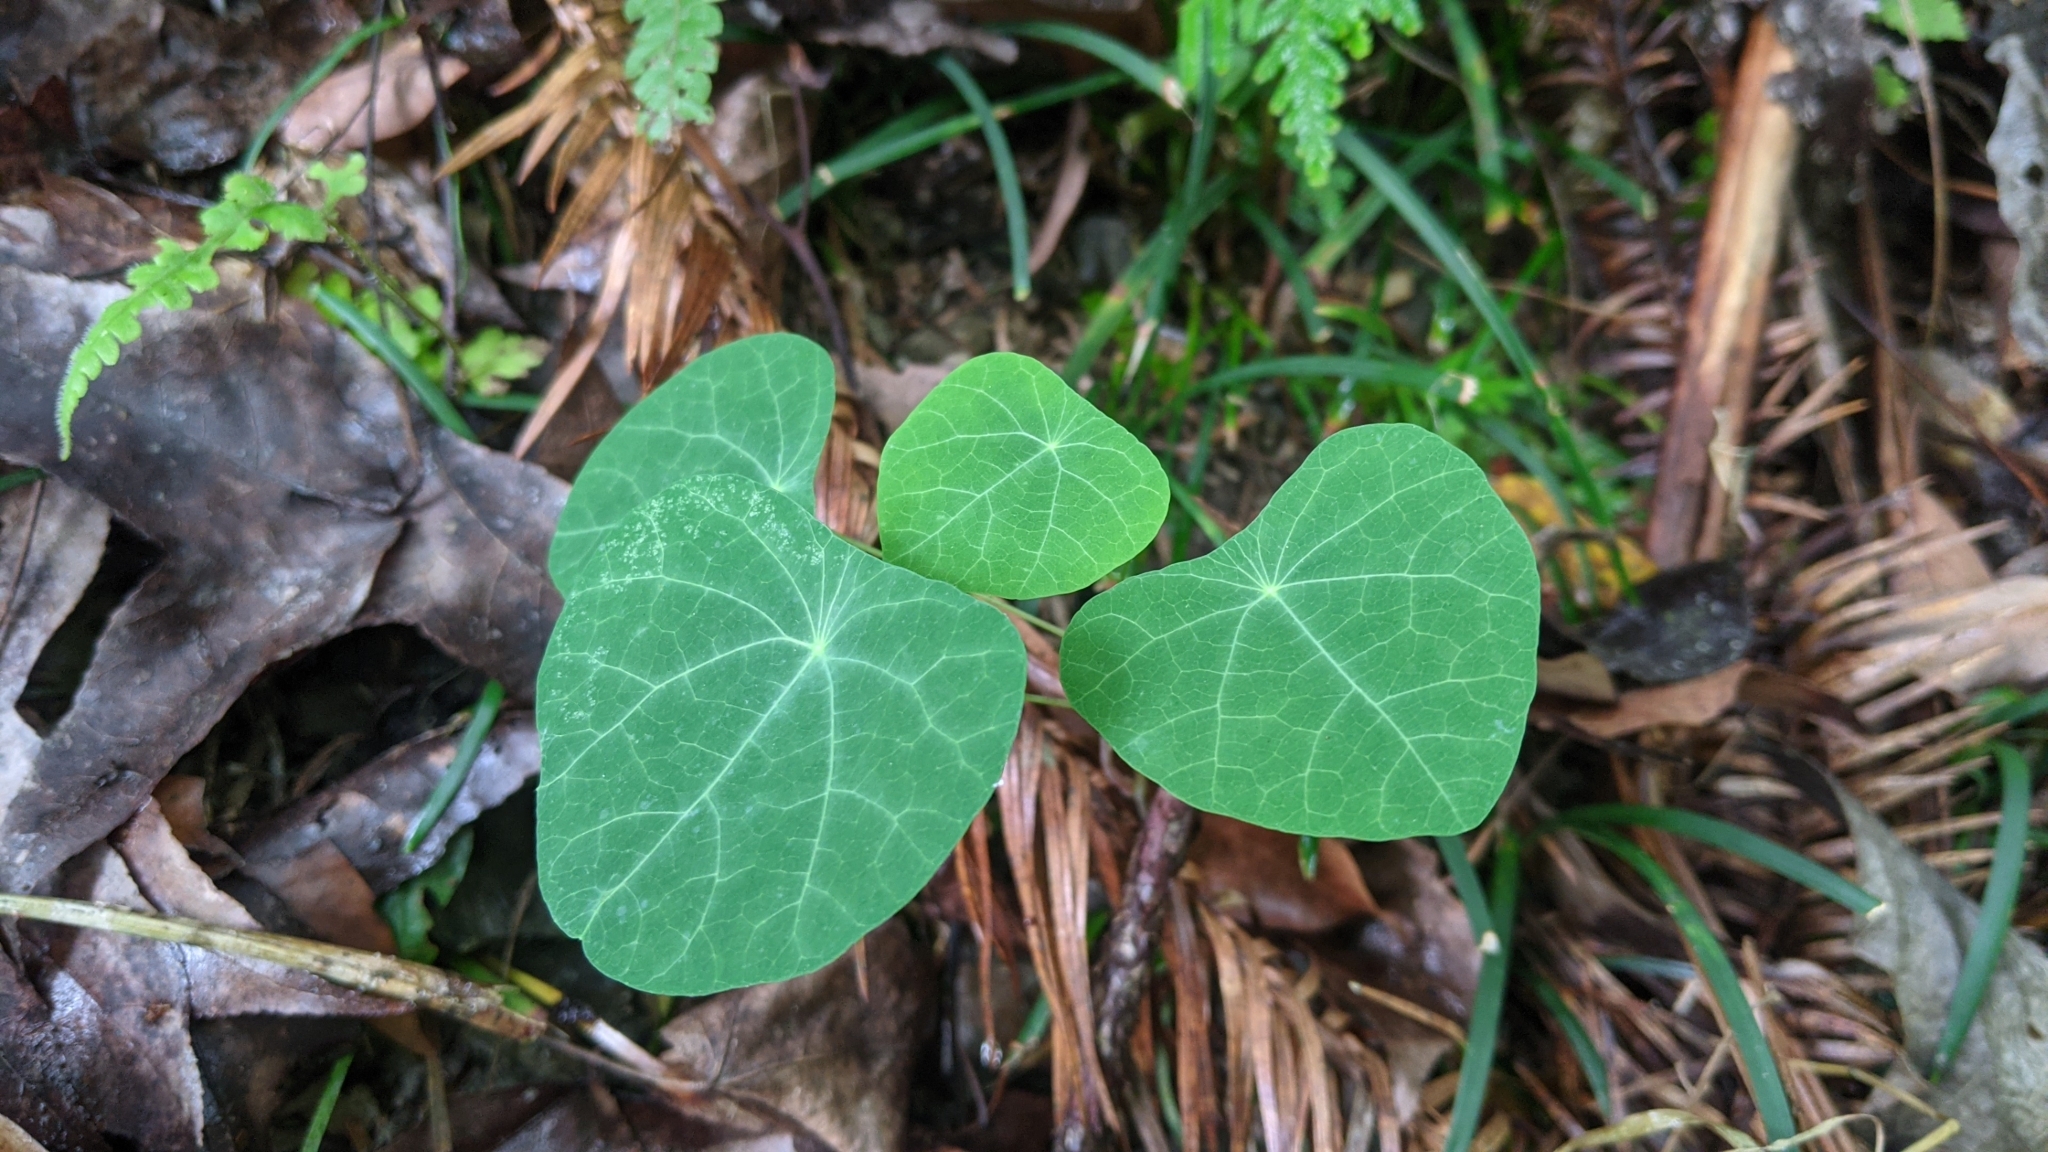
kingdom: Plantae
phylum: Tracheophyta
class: Magnoliopsida
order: Ranunculales
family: Menispermaceae
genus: Stephania
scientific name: Stephania cephalantha
